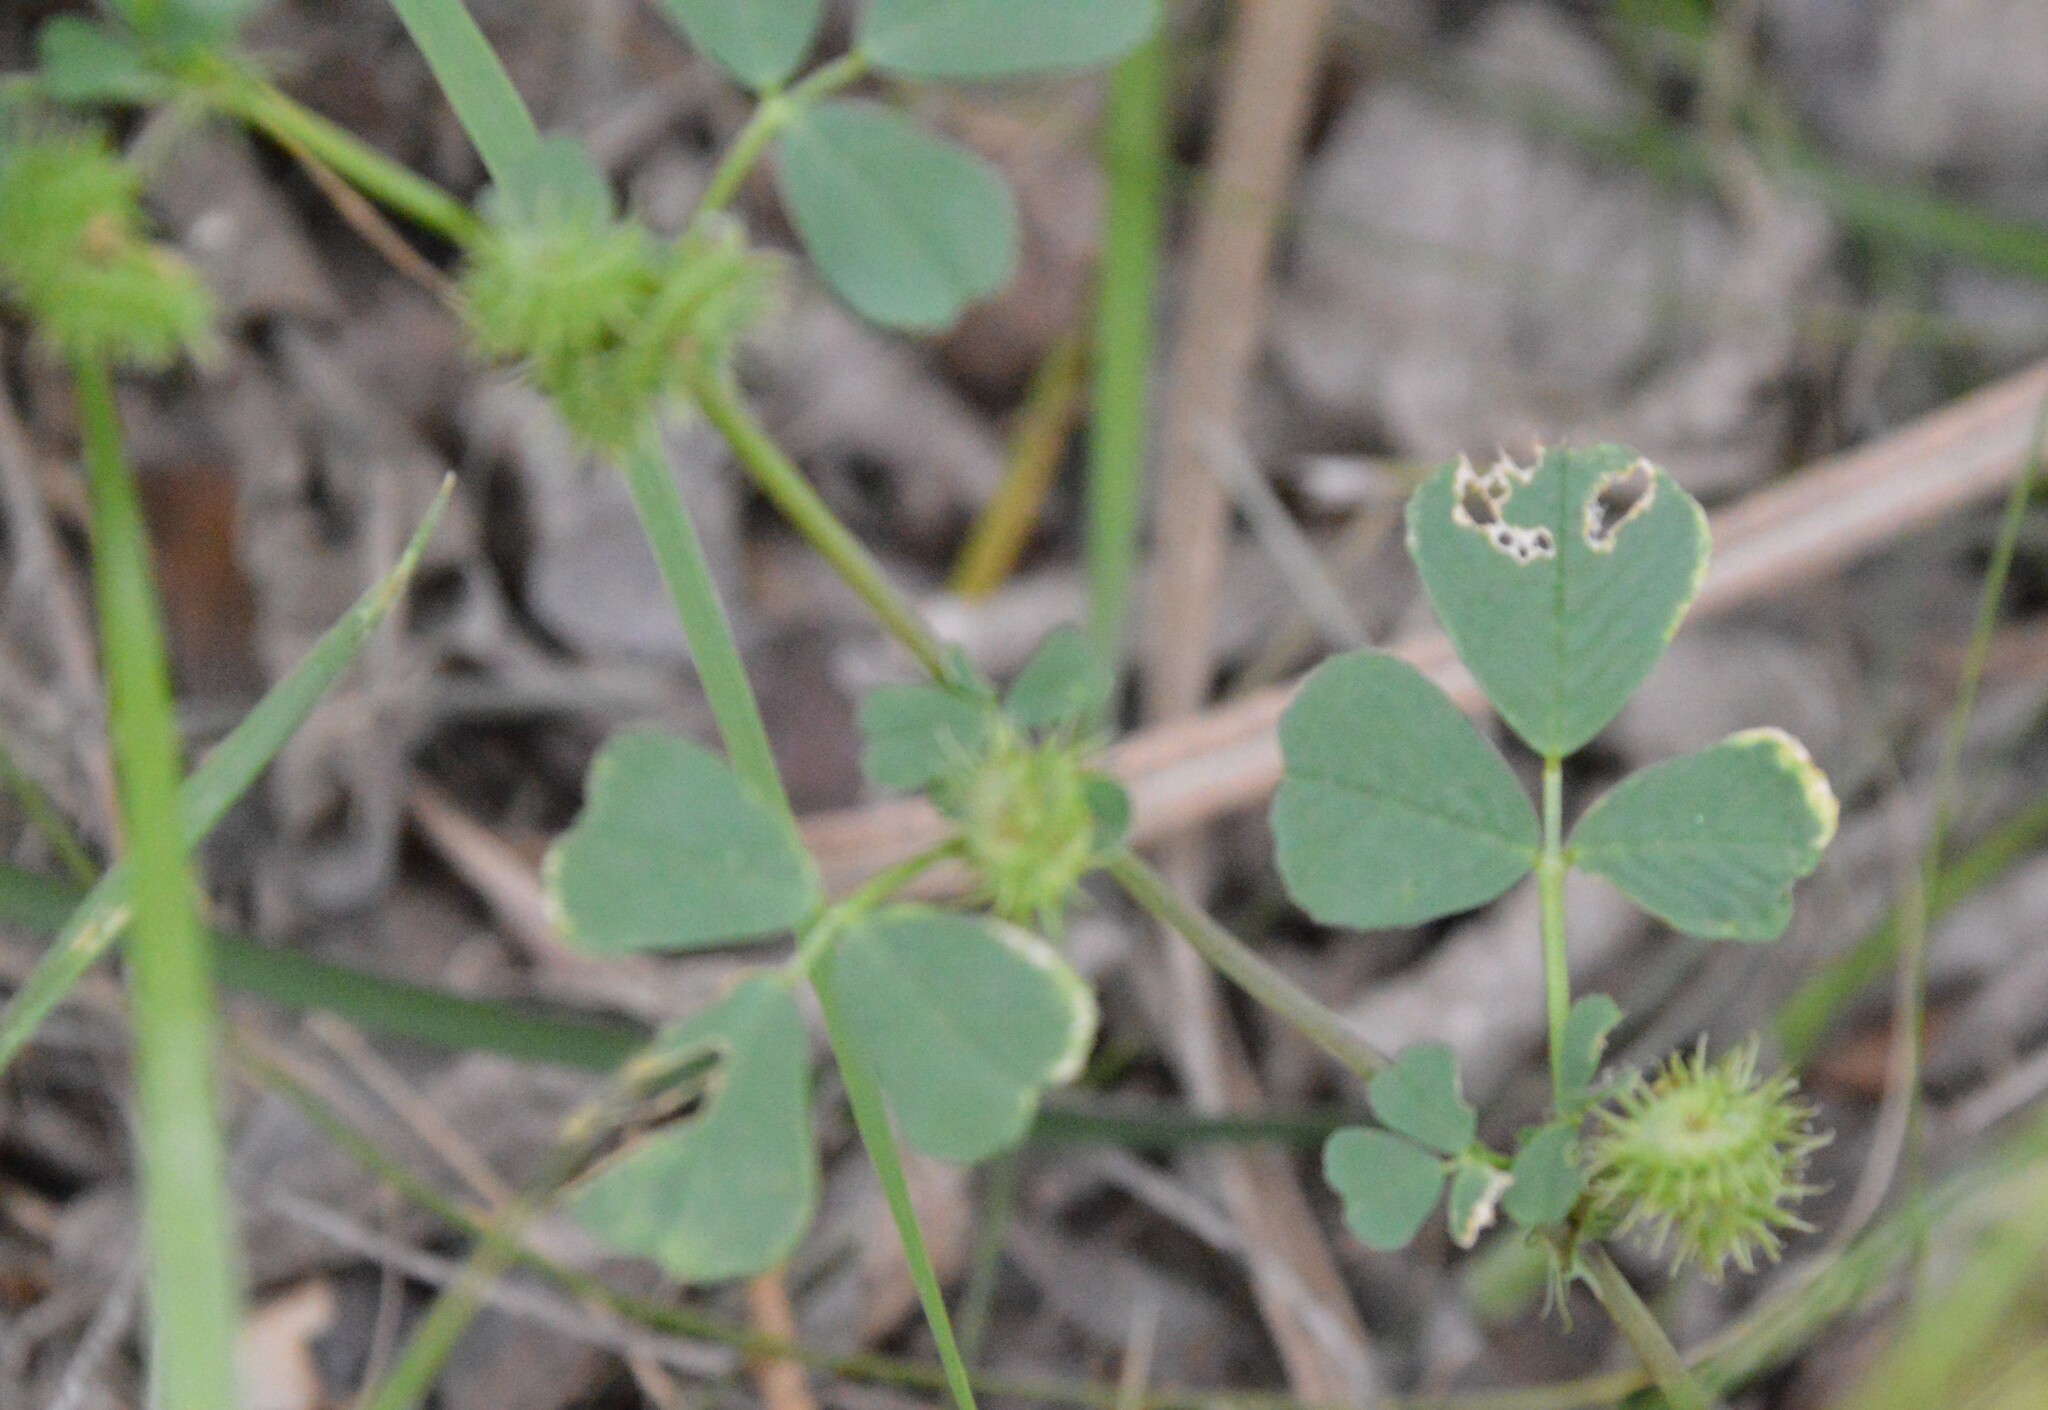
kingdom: Plantae
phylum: Tracheophyta
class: Magnoliopsida
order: Fabales
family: Fabaceae
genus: Medicago
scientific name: Medicago polymorpha
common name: Burclover
